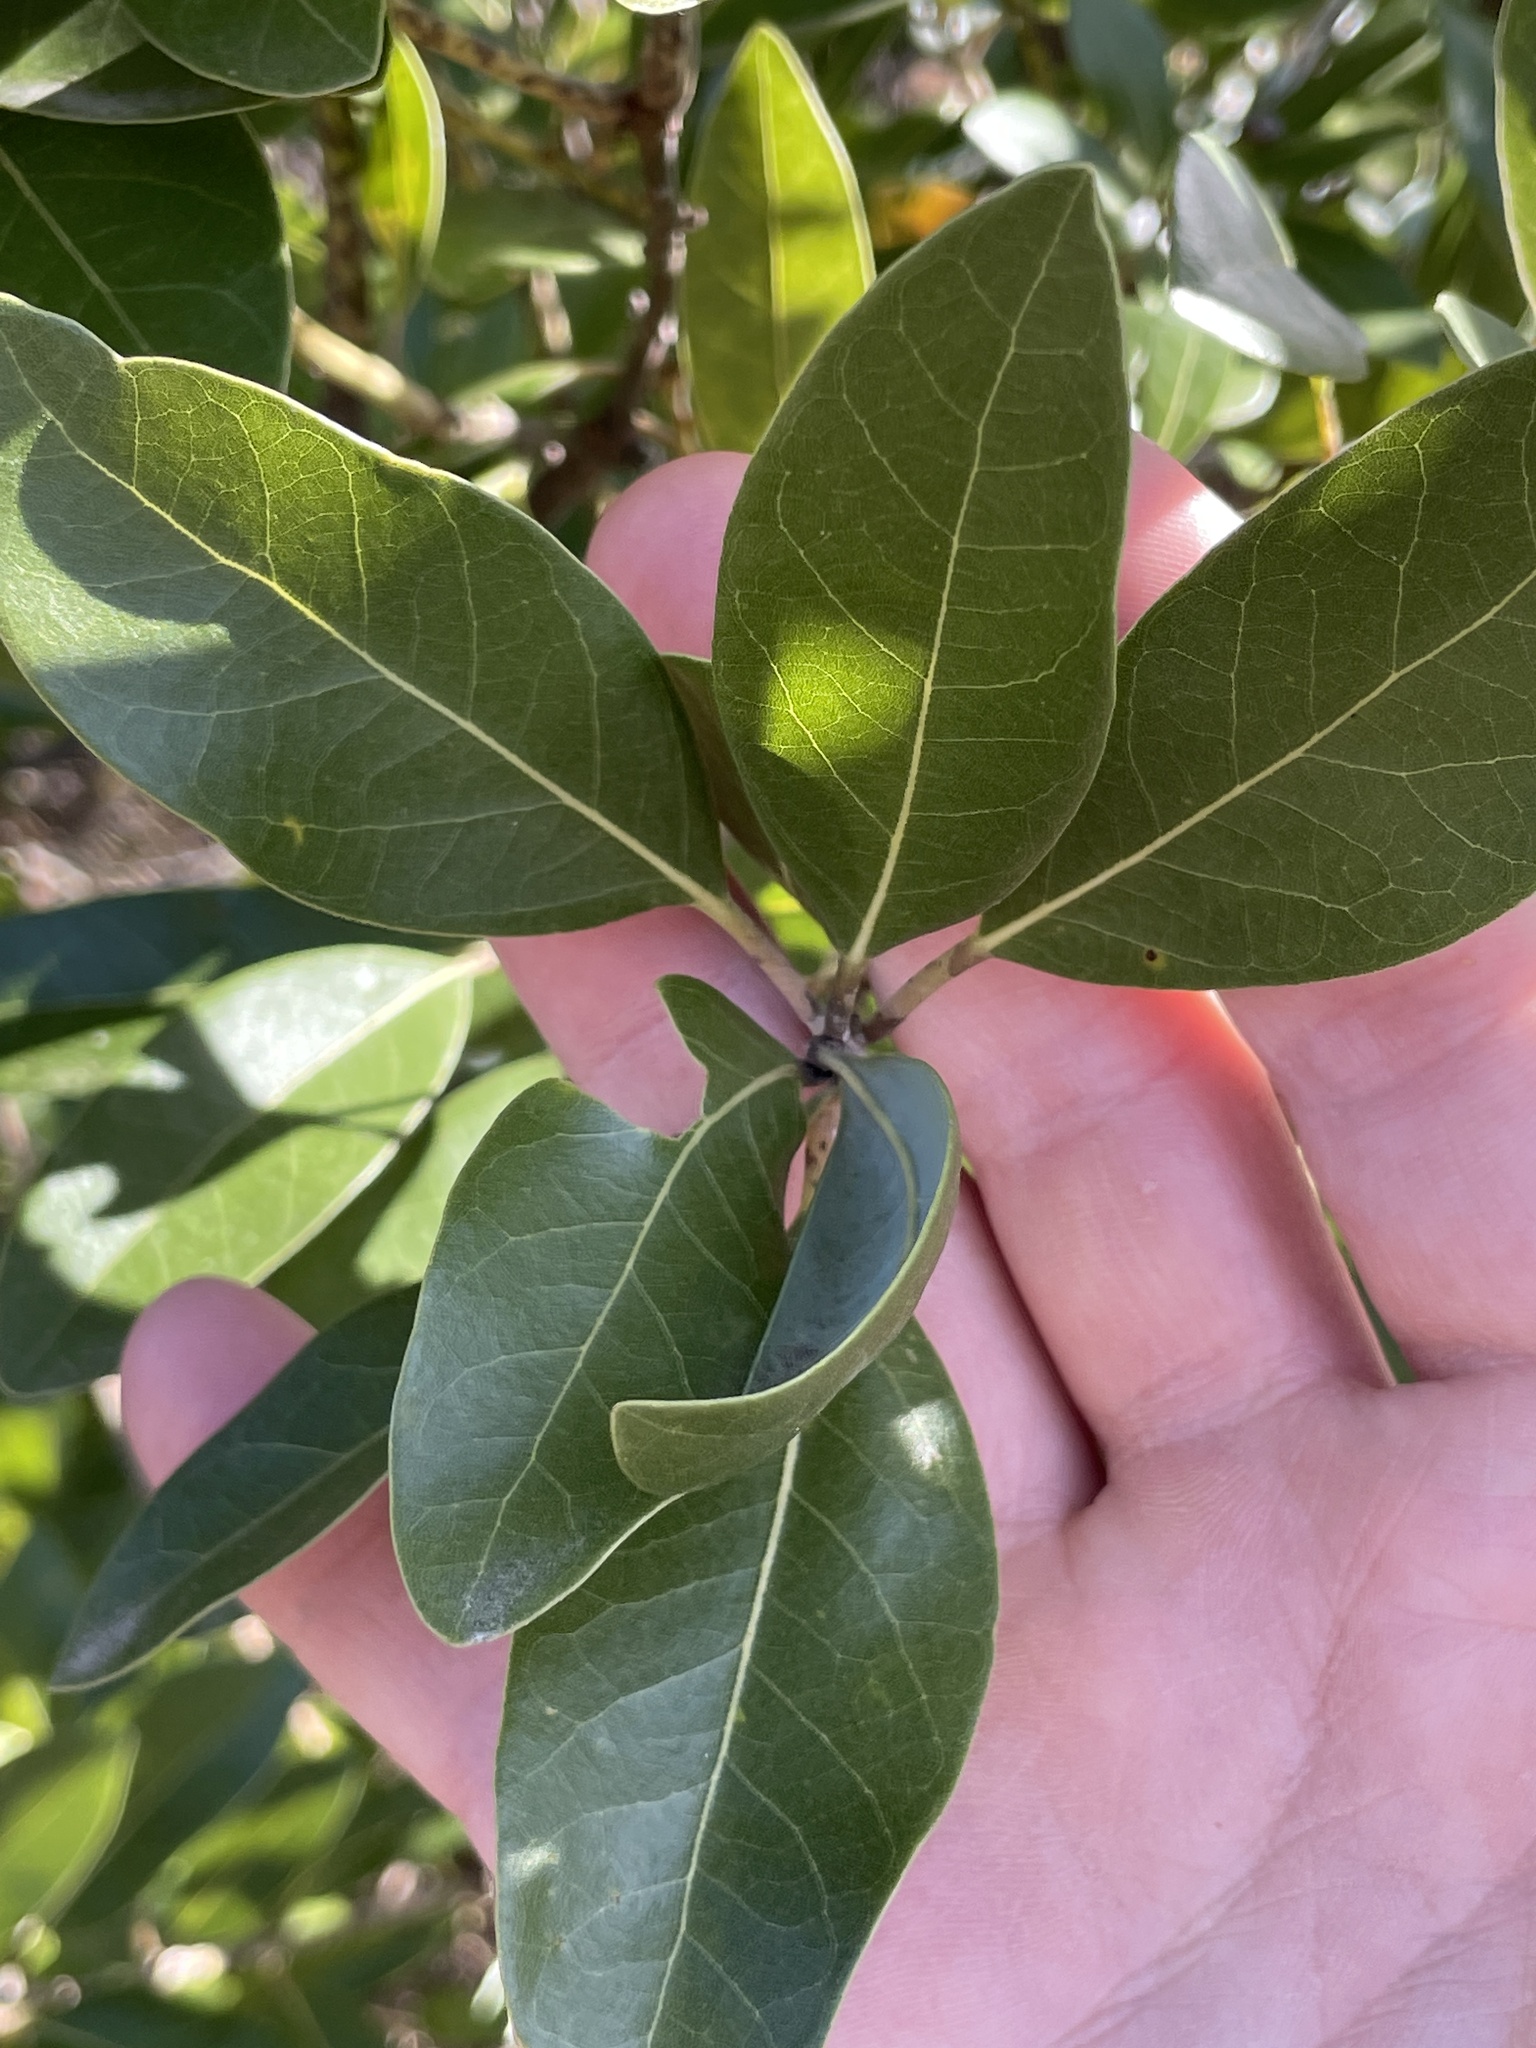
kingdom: Plantae
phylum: Tracheophyta
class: Magnoliopsida
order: Laurales
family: Lauraceae
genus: Persea
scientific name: Persea borbonia
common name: Redbay
